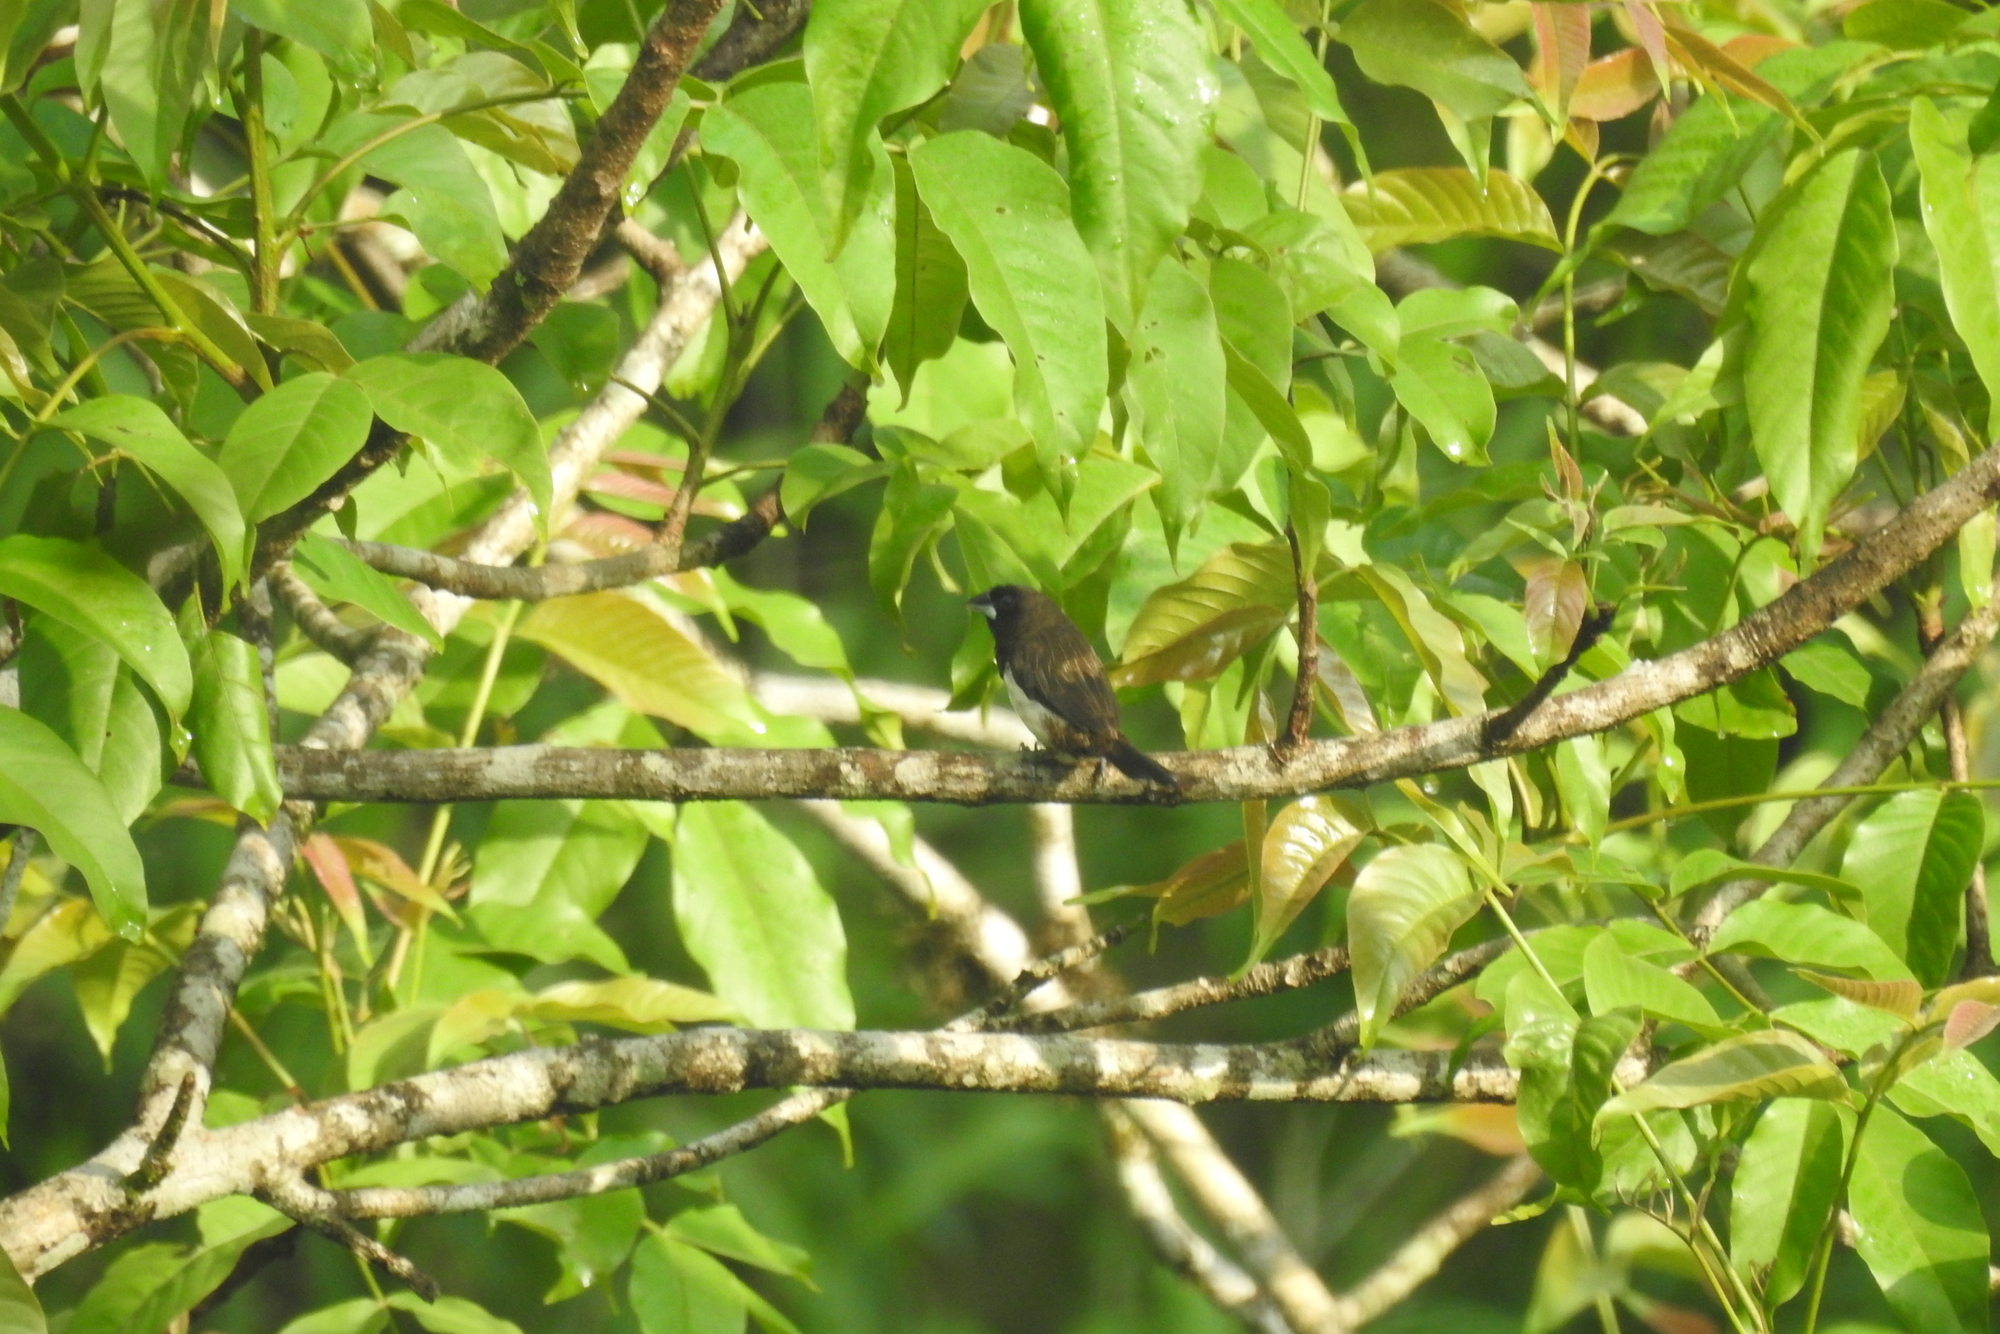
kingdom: Animalia
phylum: Chordata
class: Aves
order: Passeriformes
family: Estrildidae
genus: Lonchura
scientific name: Lonchura striata
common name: White-rumped munia
